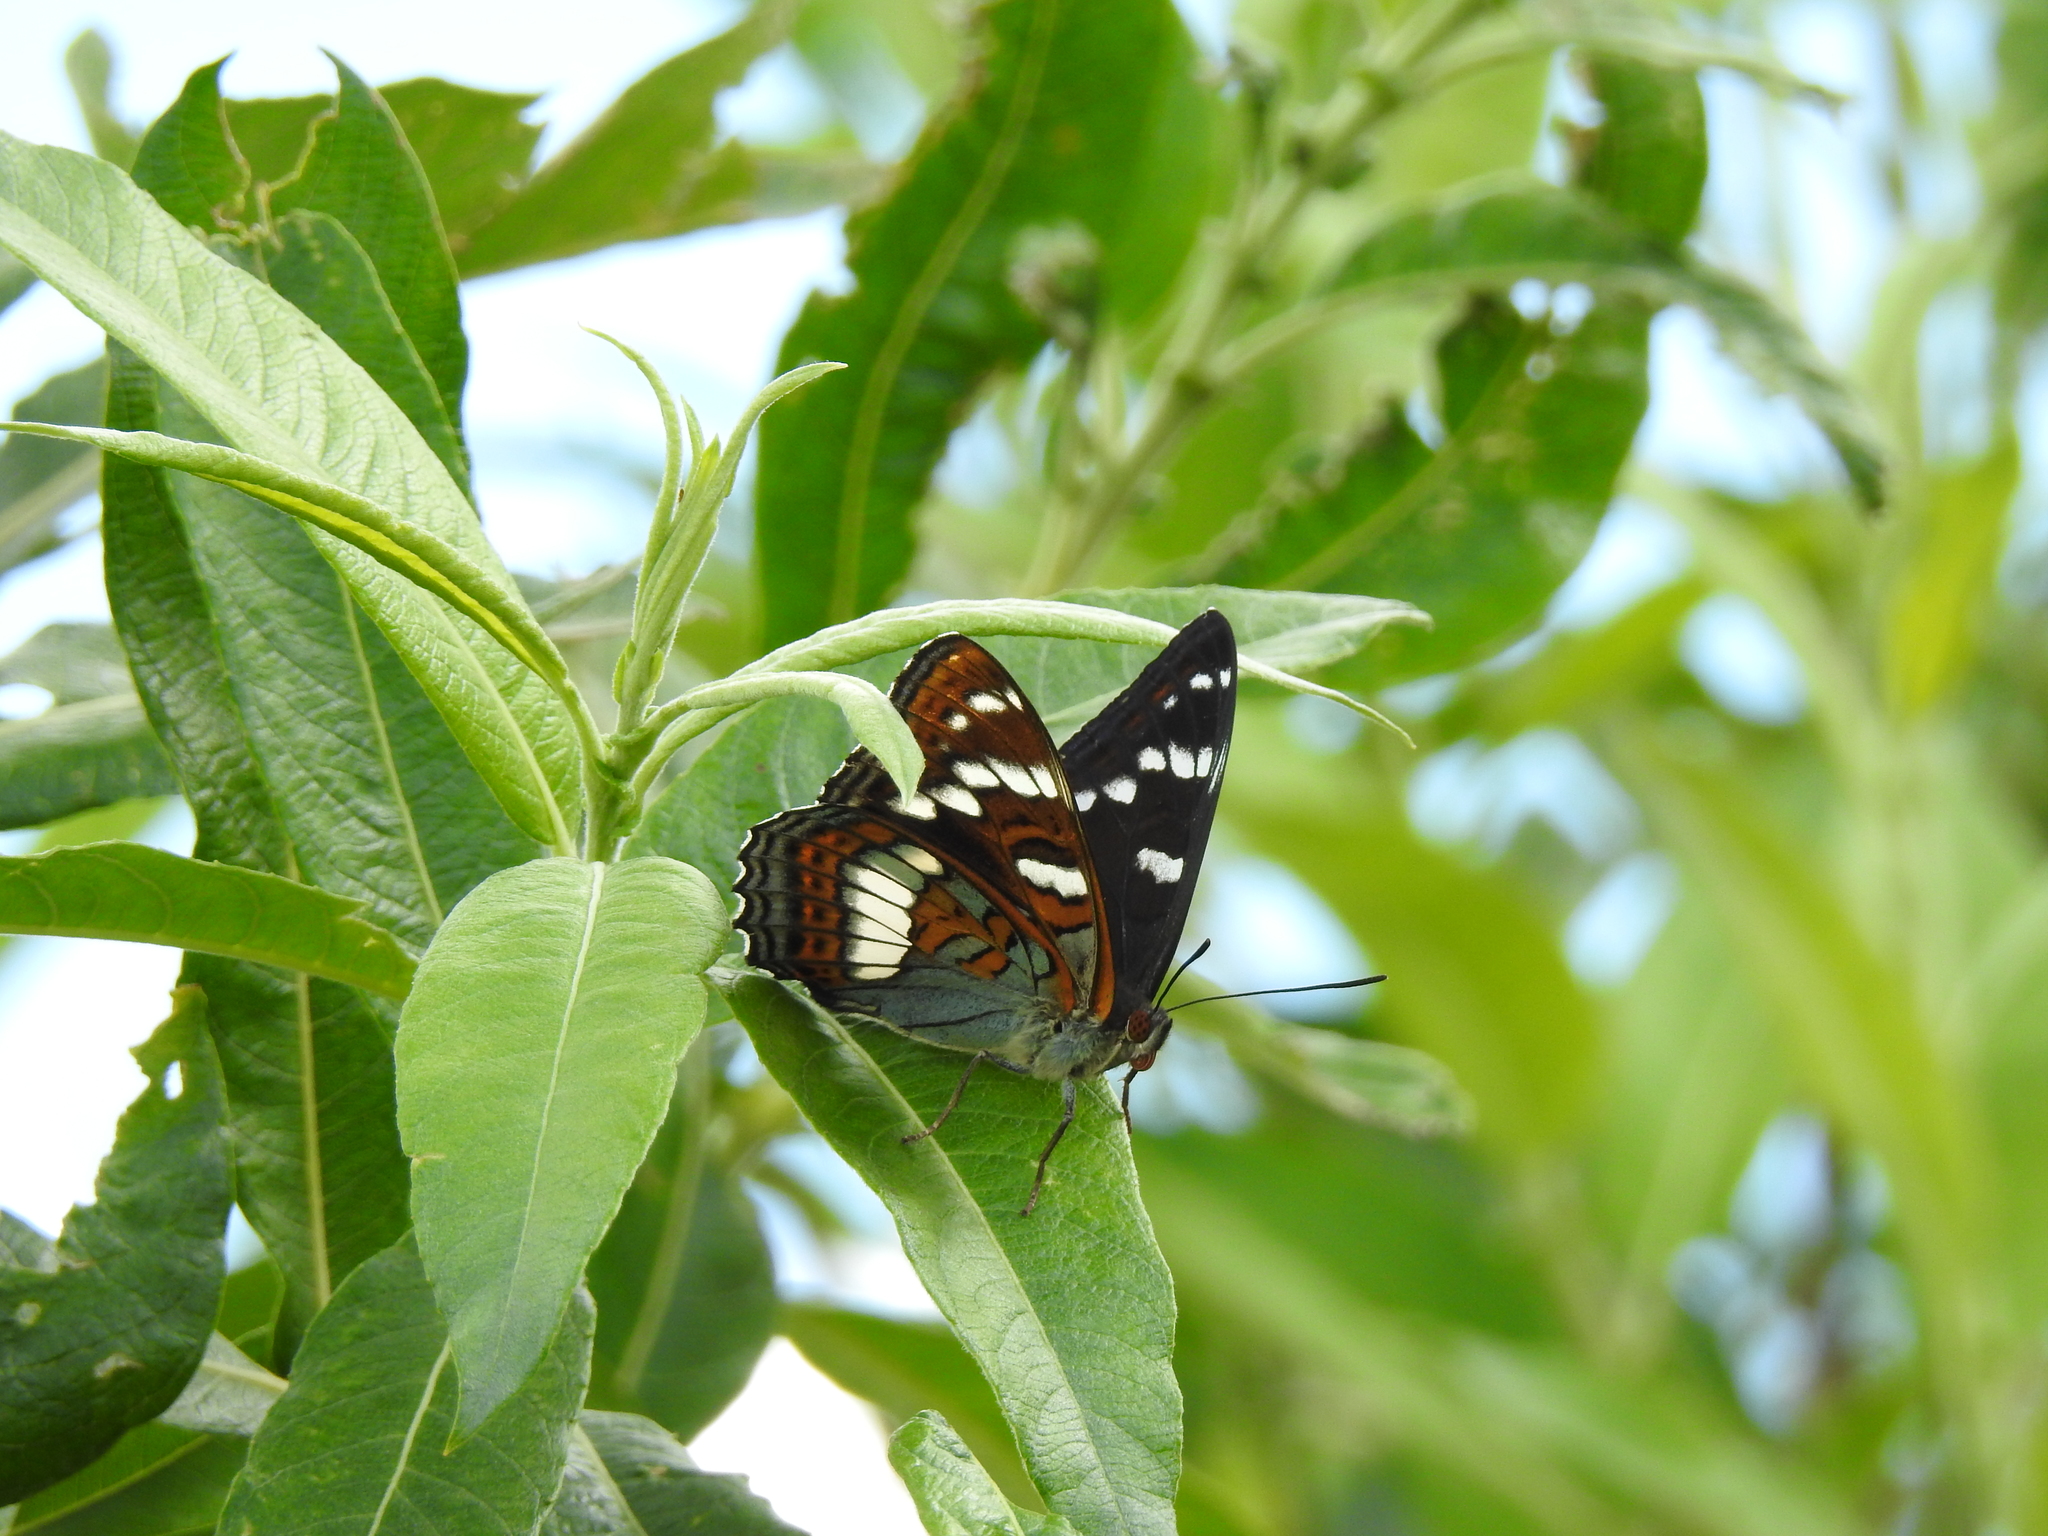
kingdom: Animalia
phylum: Arthropoda
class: Insecta
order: Lepidoptera
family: Nymphalidae
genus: Limenitis
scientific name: Limenitis populi
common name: Poplar admiral
